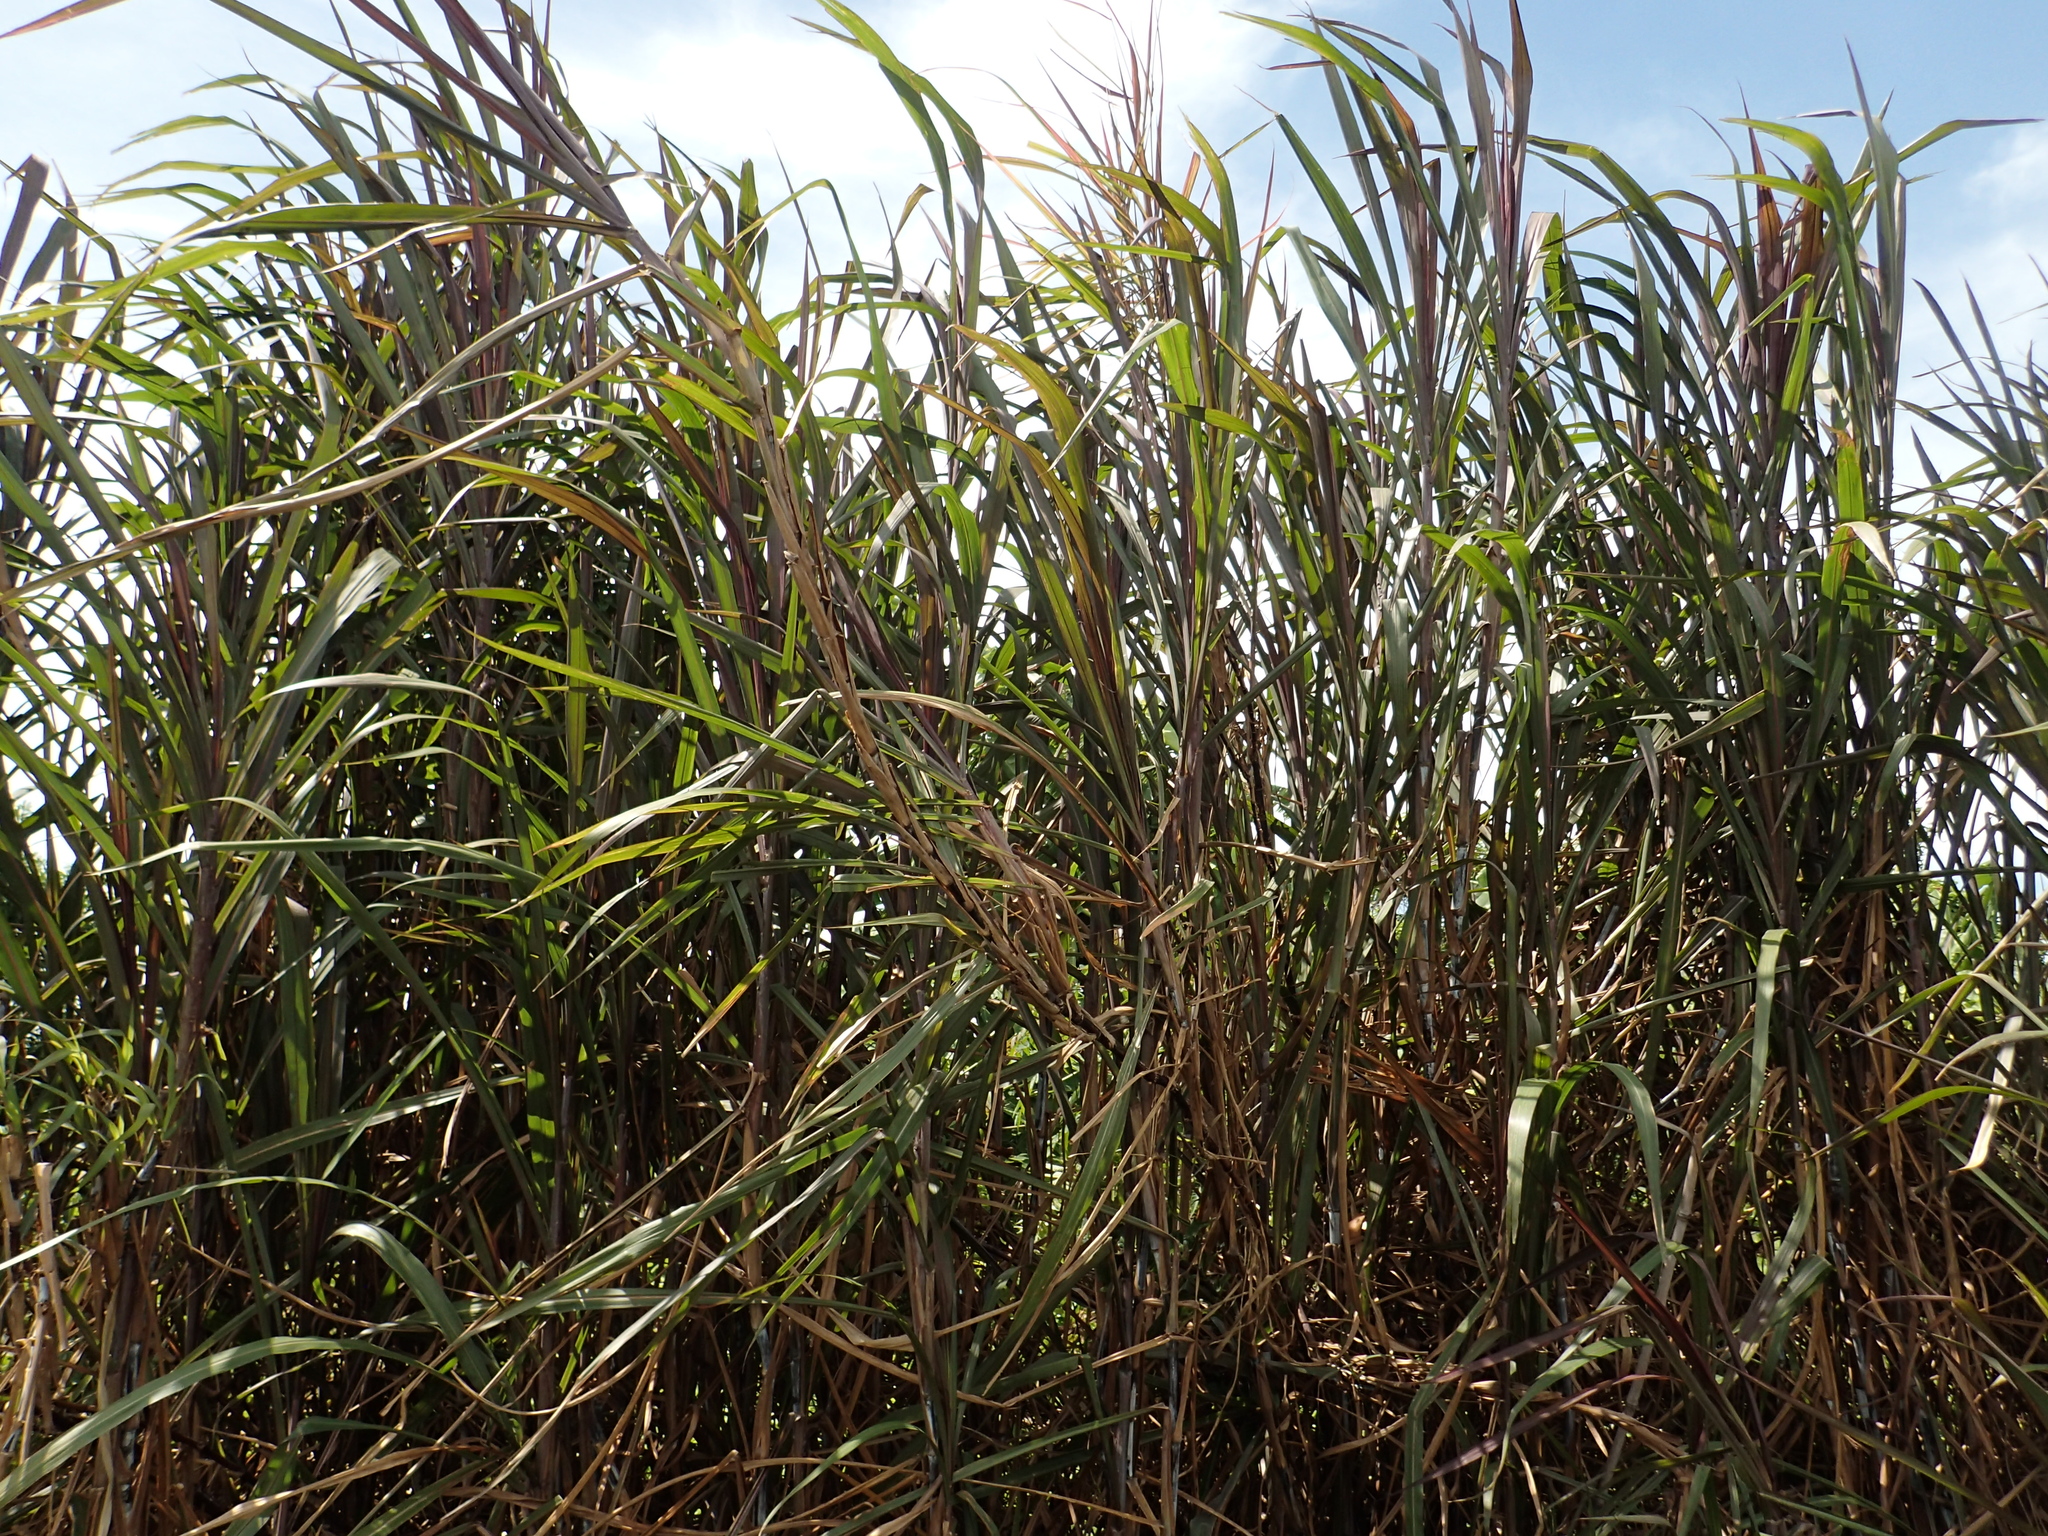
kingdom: Plantae
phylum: Tracheophyta
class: Liliopsida
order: Poales
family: Poaceae
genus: Cenchrus
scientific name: Cenchrus purpureus
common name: Elephant grass
